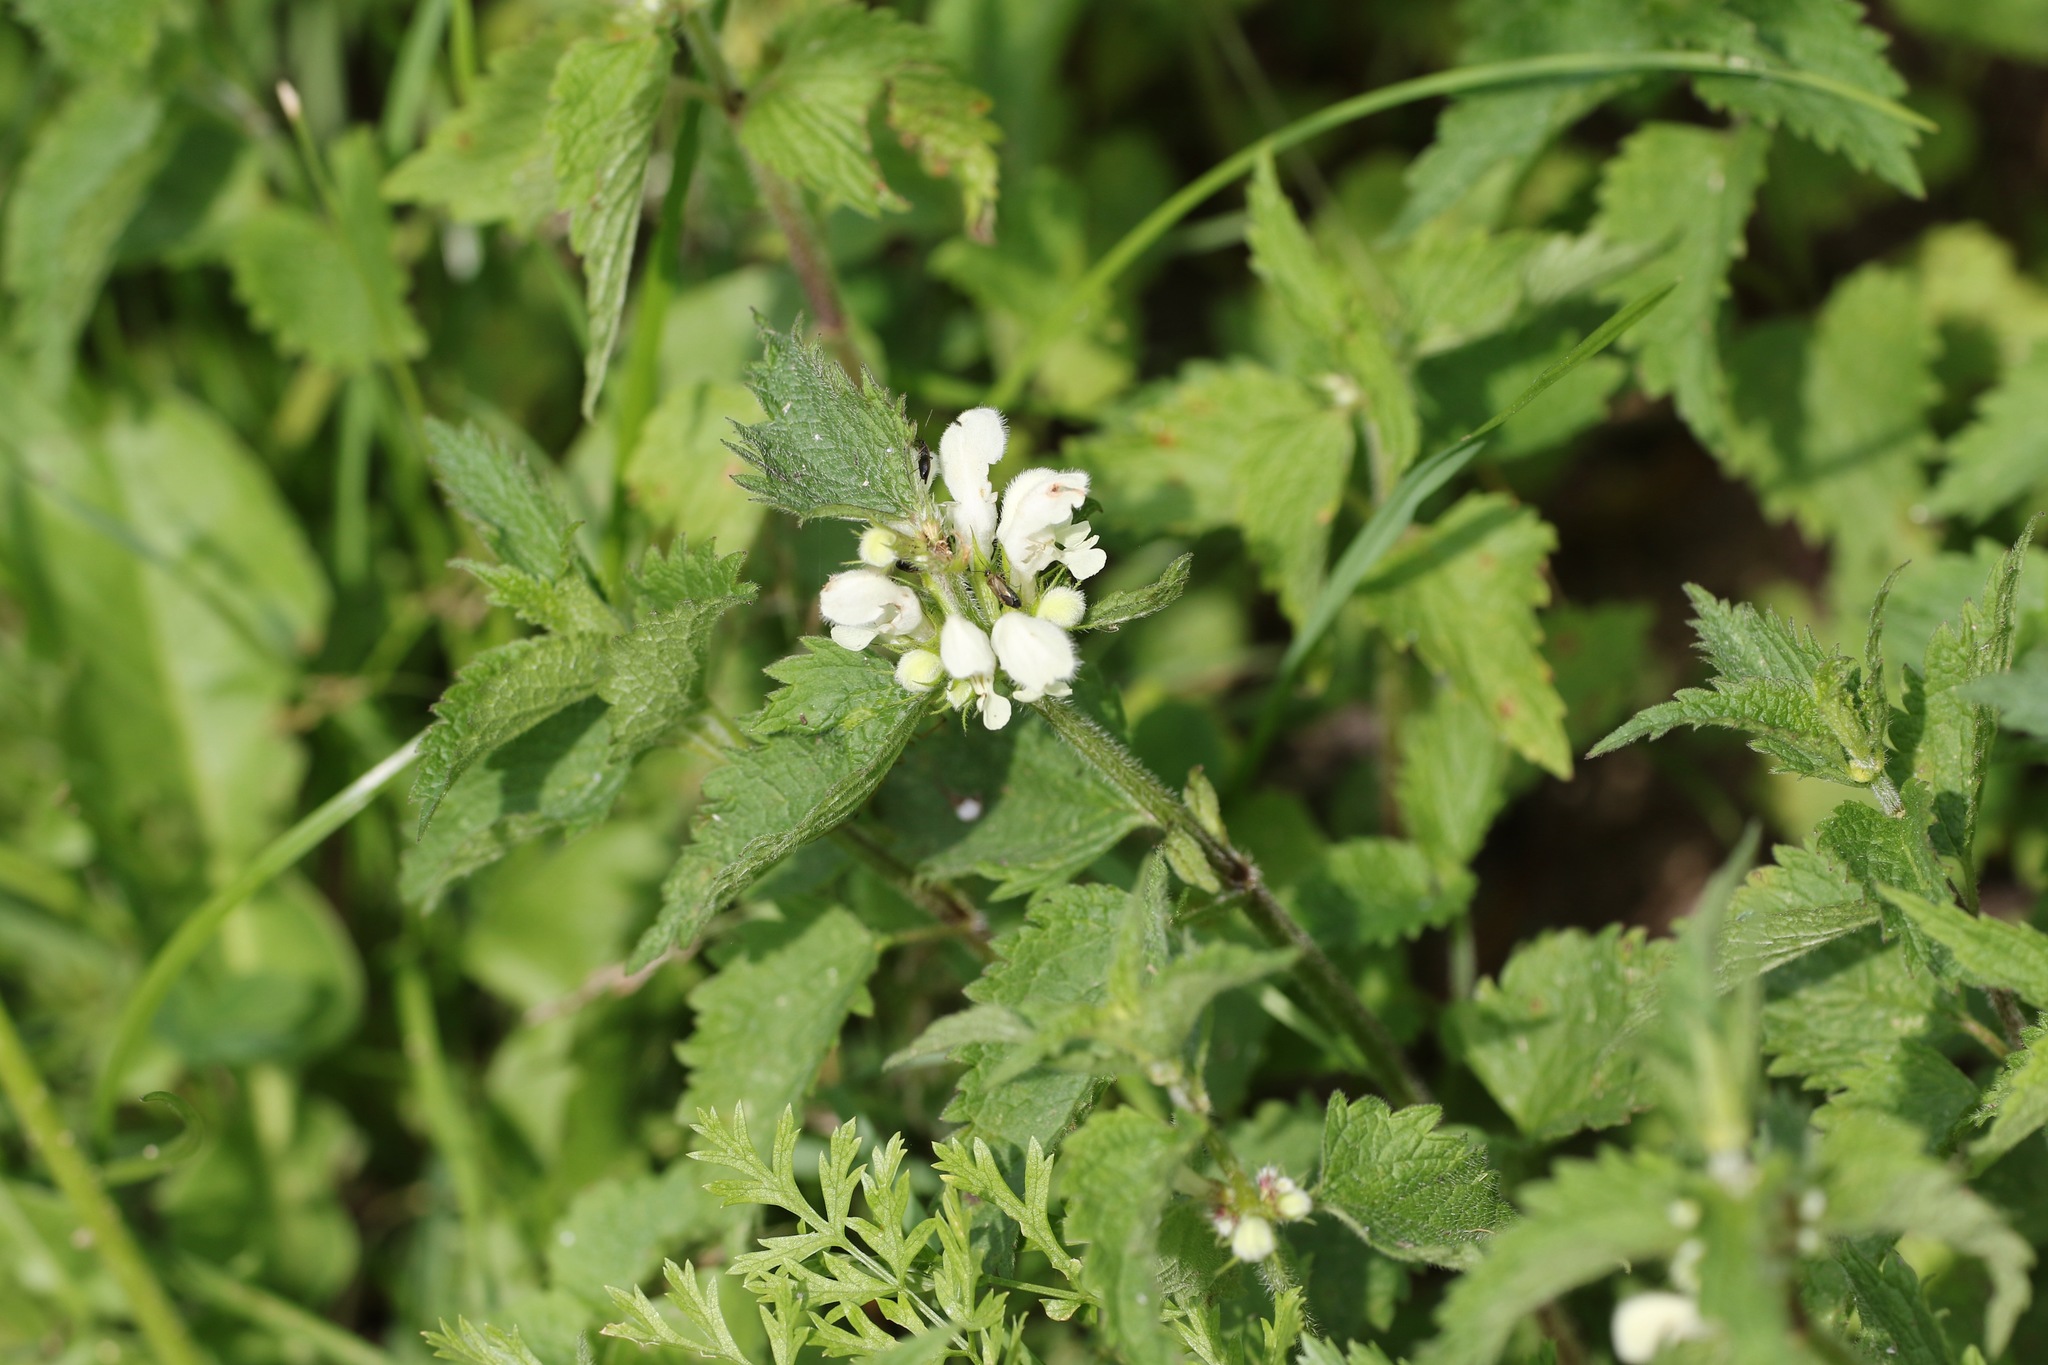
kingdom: Plantae
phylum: Tracheophyta
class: Magnoliopsida
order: Lamiales
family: Lamiaceae
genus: Lamium
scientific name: Lamium album
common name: White dead-nettle
